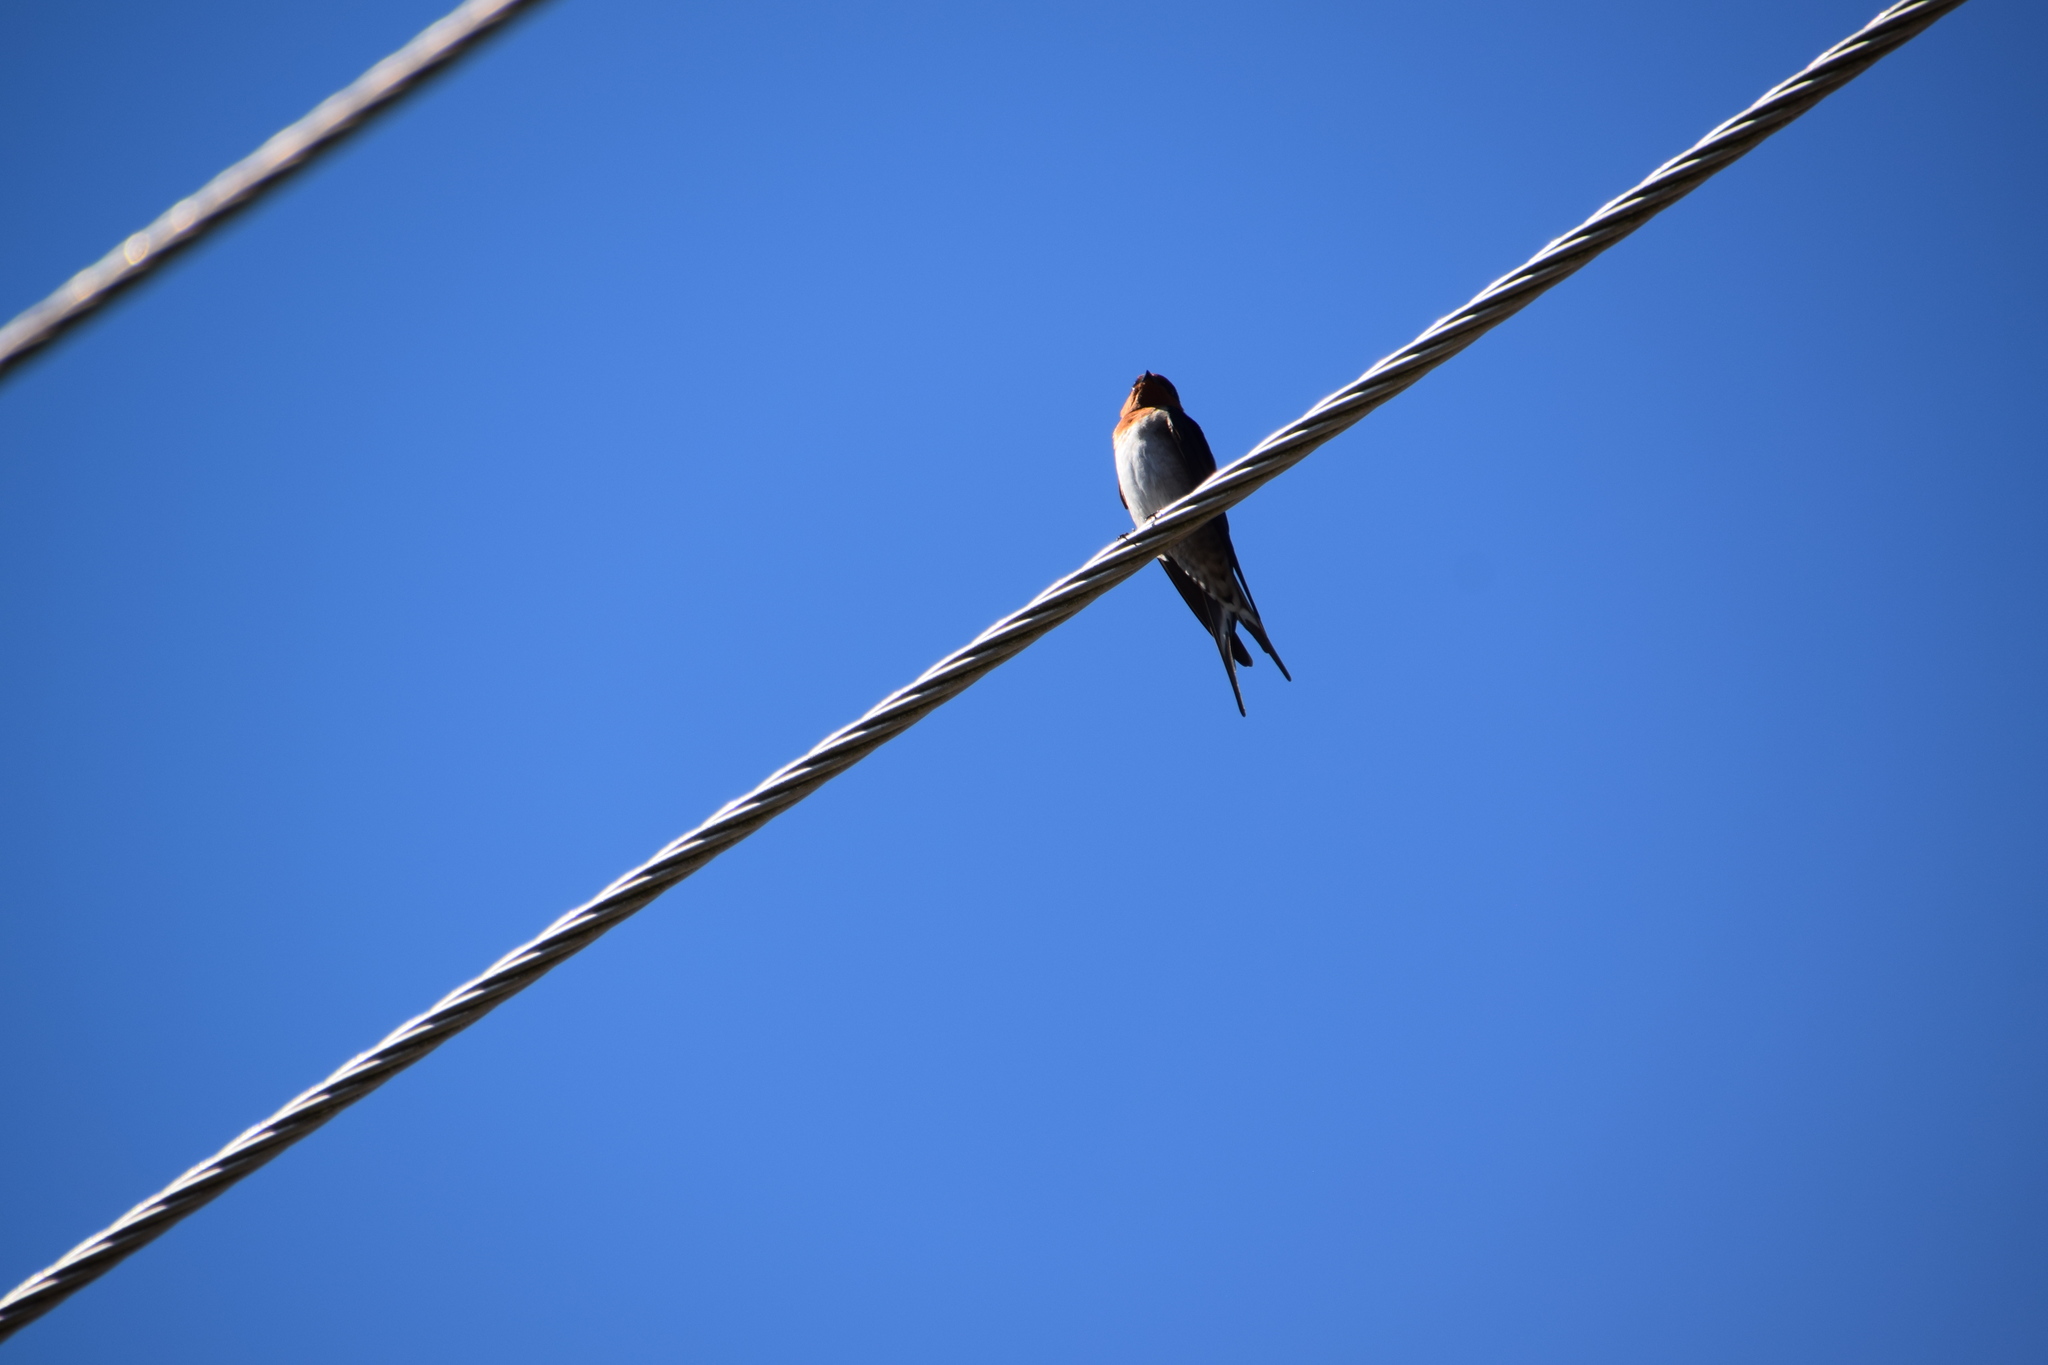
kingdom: Animalia
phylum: Chordata
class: Aves
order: Passeriformes
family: Hirundinidae
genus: Hirundo
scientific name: Hirundo neoxena
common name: Welcome swallow
